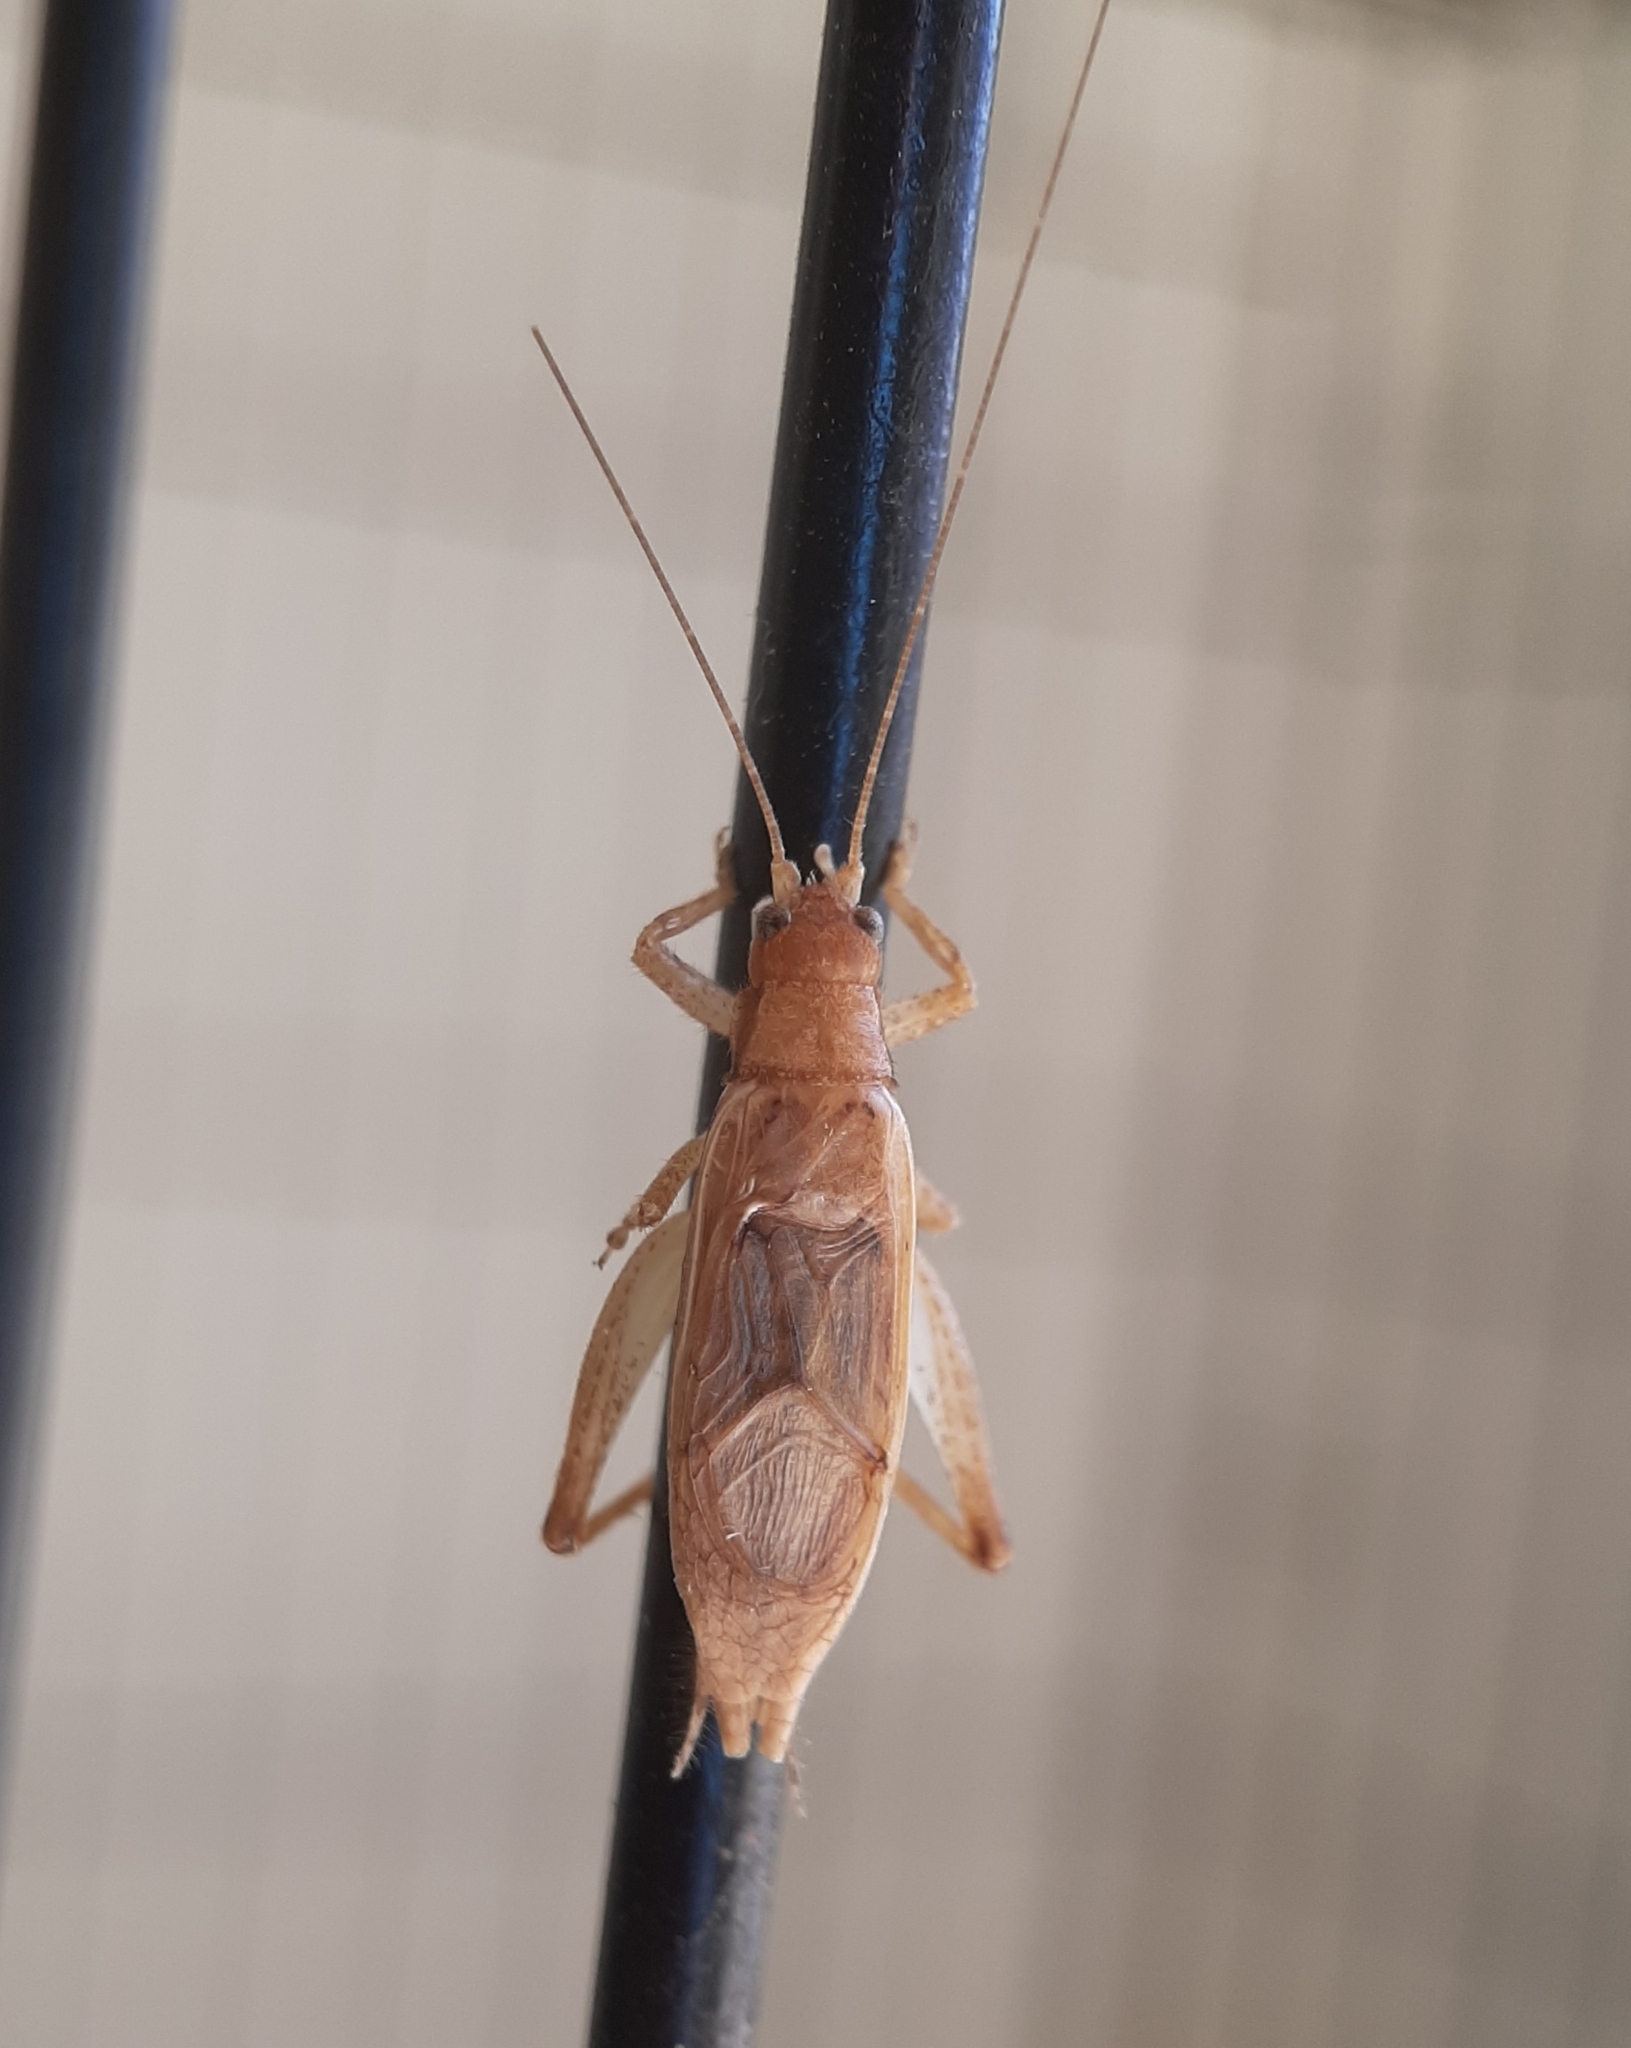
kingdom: Animalia
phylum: Arthropoda
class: Insecta
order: Orthoptera
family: Gryllidae
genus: Hapithus
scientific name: Hapithus saltator
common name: Jumping bush cricket
